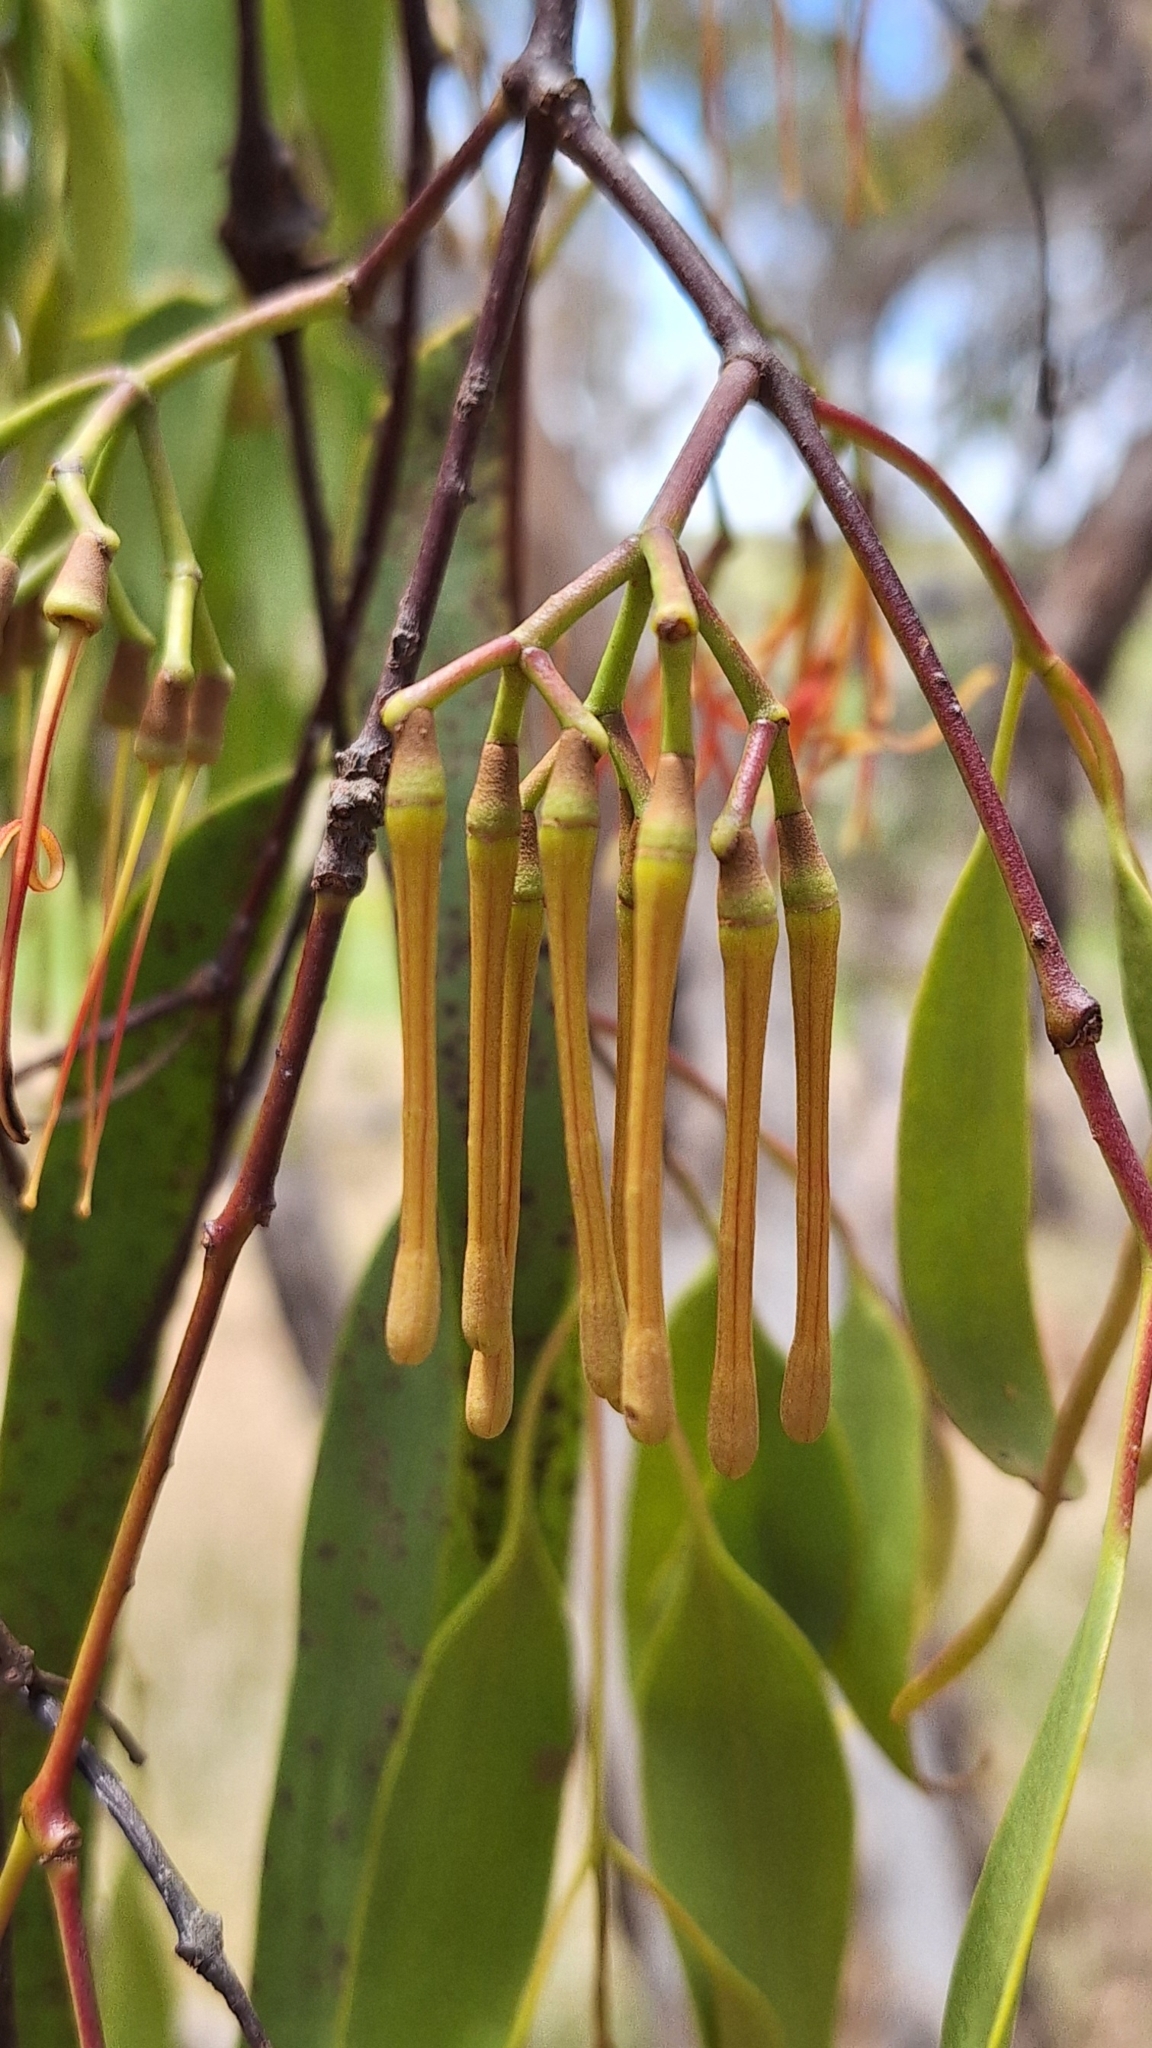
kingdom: Plantae
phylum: Tracheophyta
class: Magnoliopsida
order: Santalales
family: Loranthaceae
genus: Amyema
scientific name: Amyema miquelii
